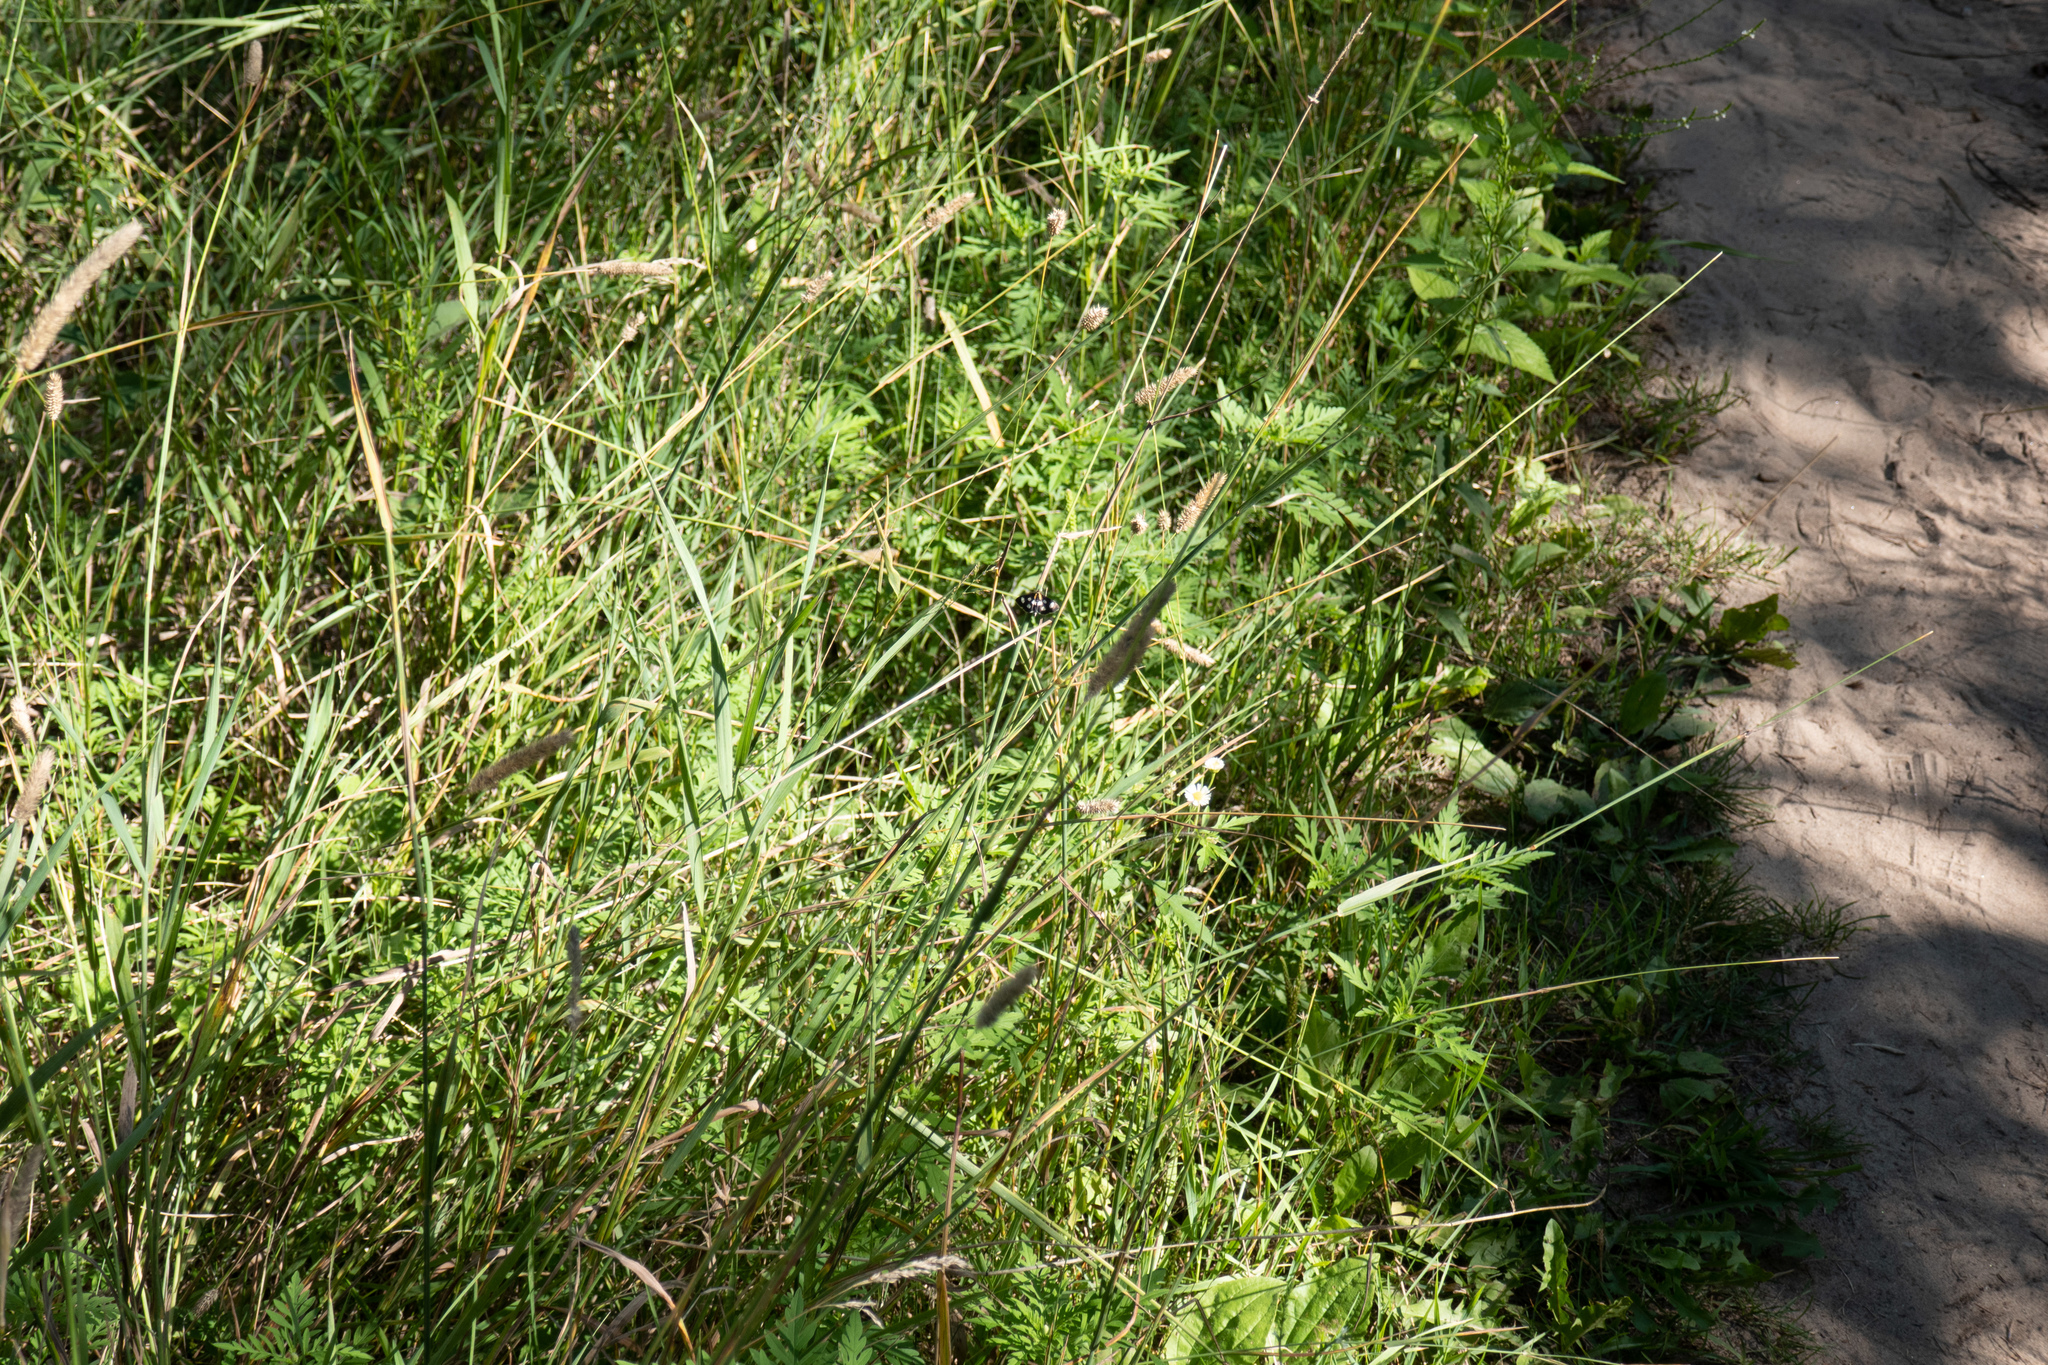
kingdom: Animalia
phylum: Arthropoda
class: Insecta
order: Lepidoptera
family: Crambidae
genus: Anania
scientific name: Anania funebris
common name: White-spotted sable moth
